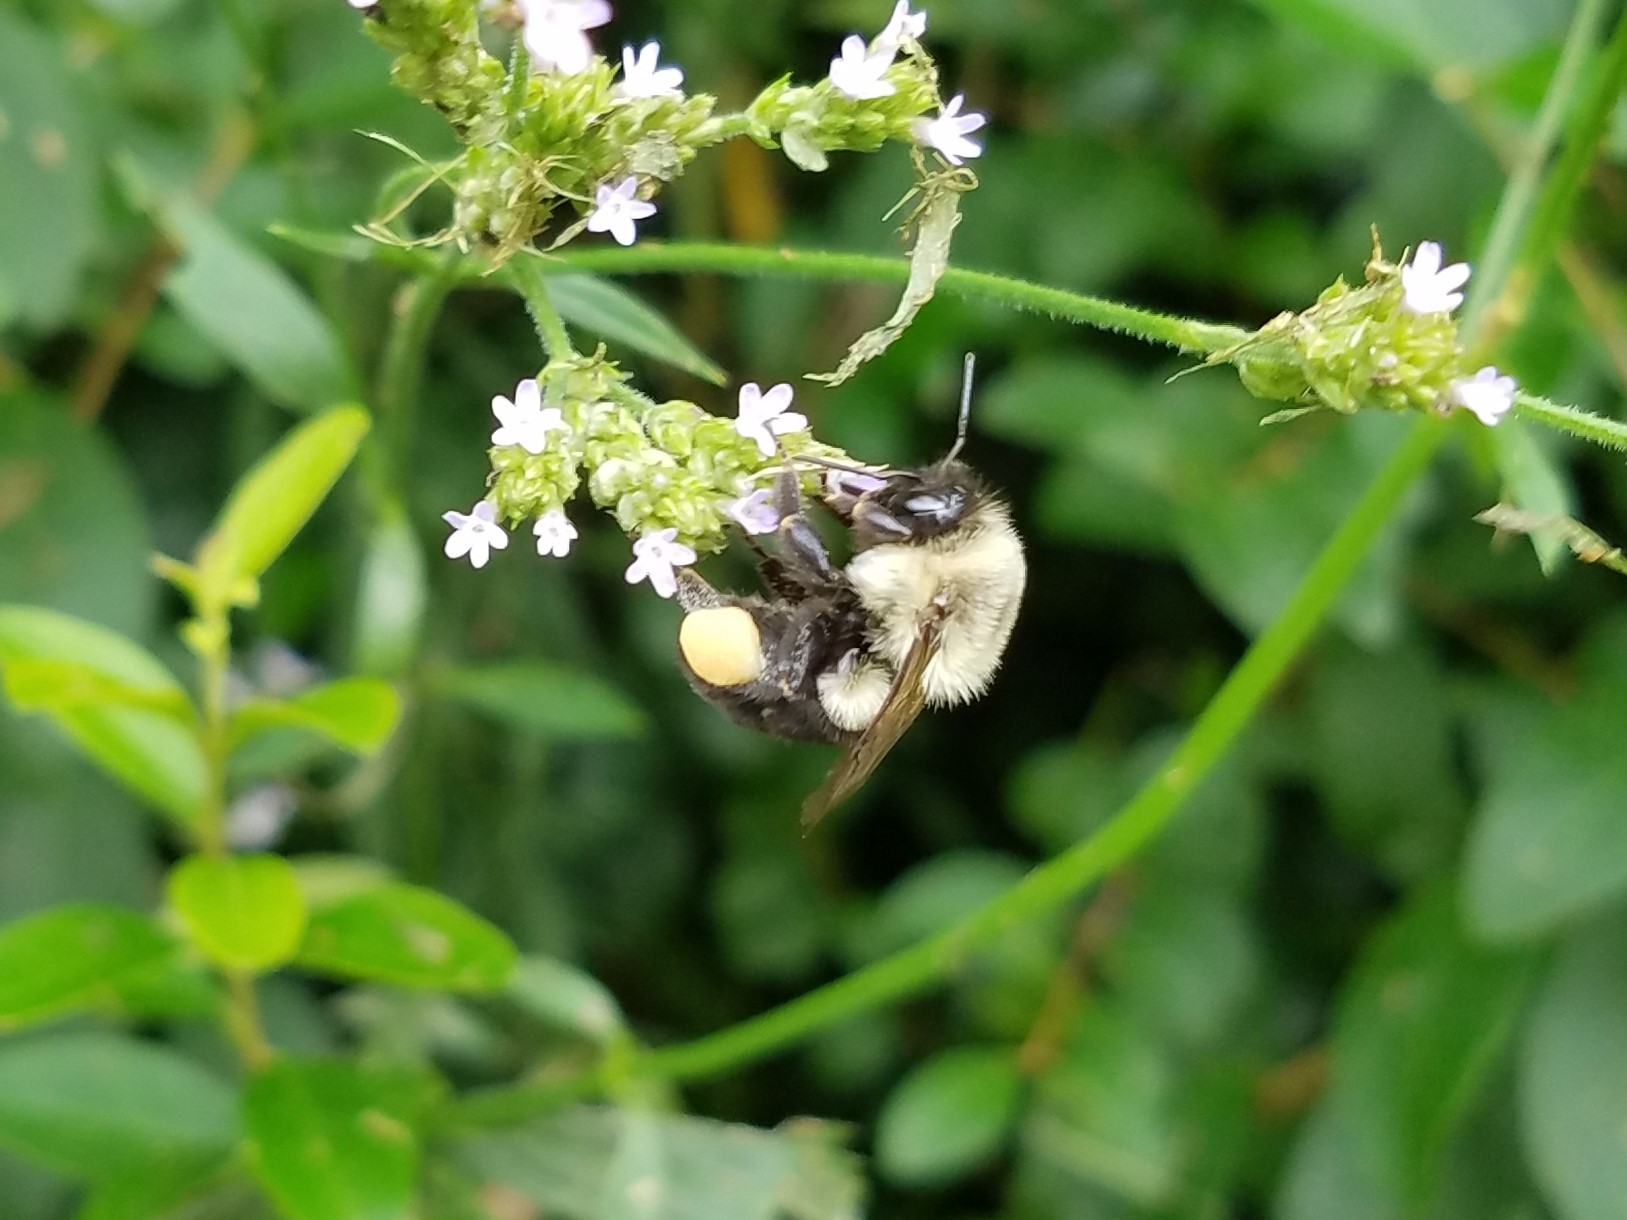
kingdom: Animalia
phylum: Arthropoda
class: Insecta
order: Hymenoptera
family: Apidae
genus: Bombus
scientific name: Bombus impatiens
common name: Common eastern bumble bee
